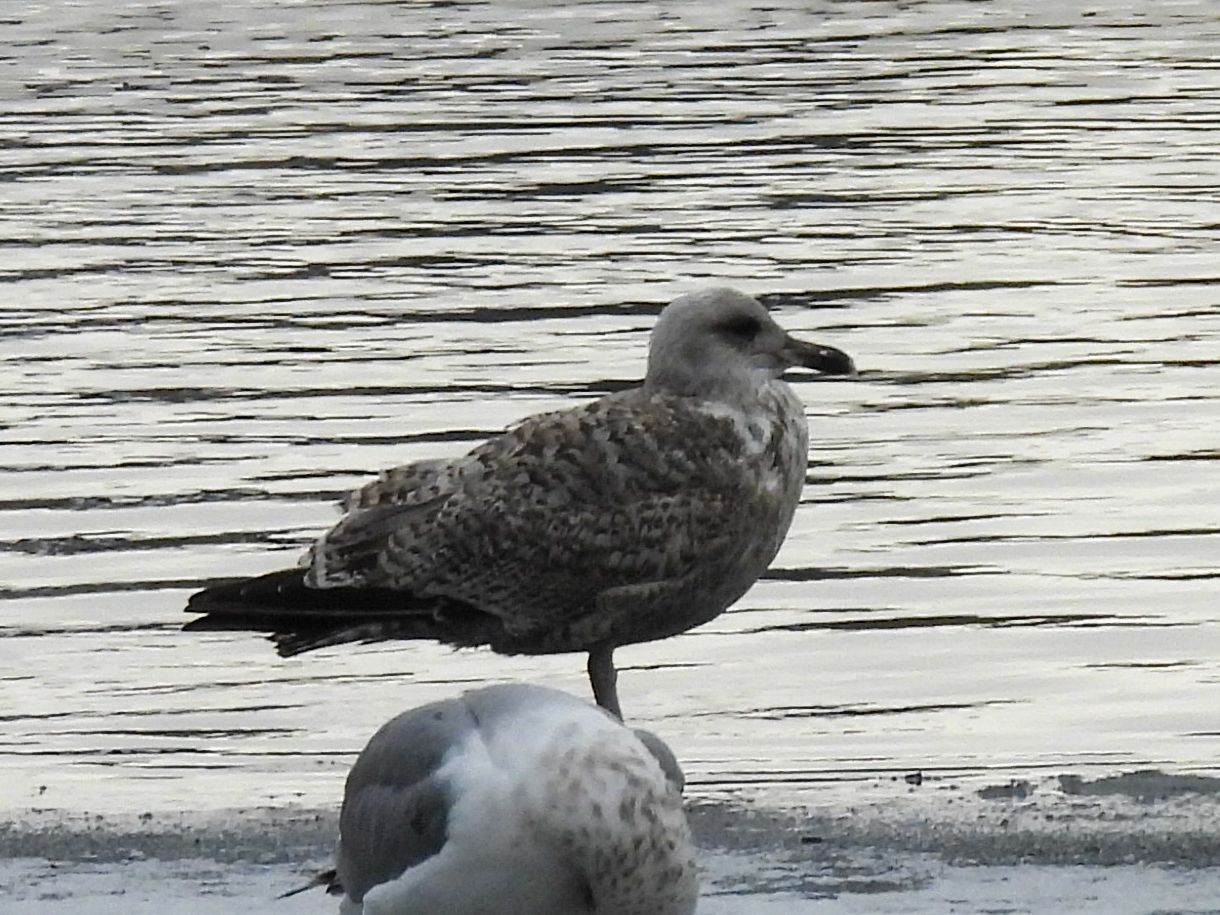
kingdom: Animalia
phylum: Chordata
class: Aves
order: Charadriiformes
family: Laridae
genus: Larus
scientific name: Larus argentatus
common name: Herring gull
